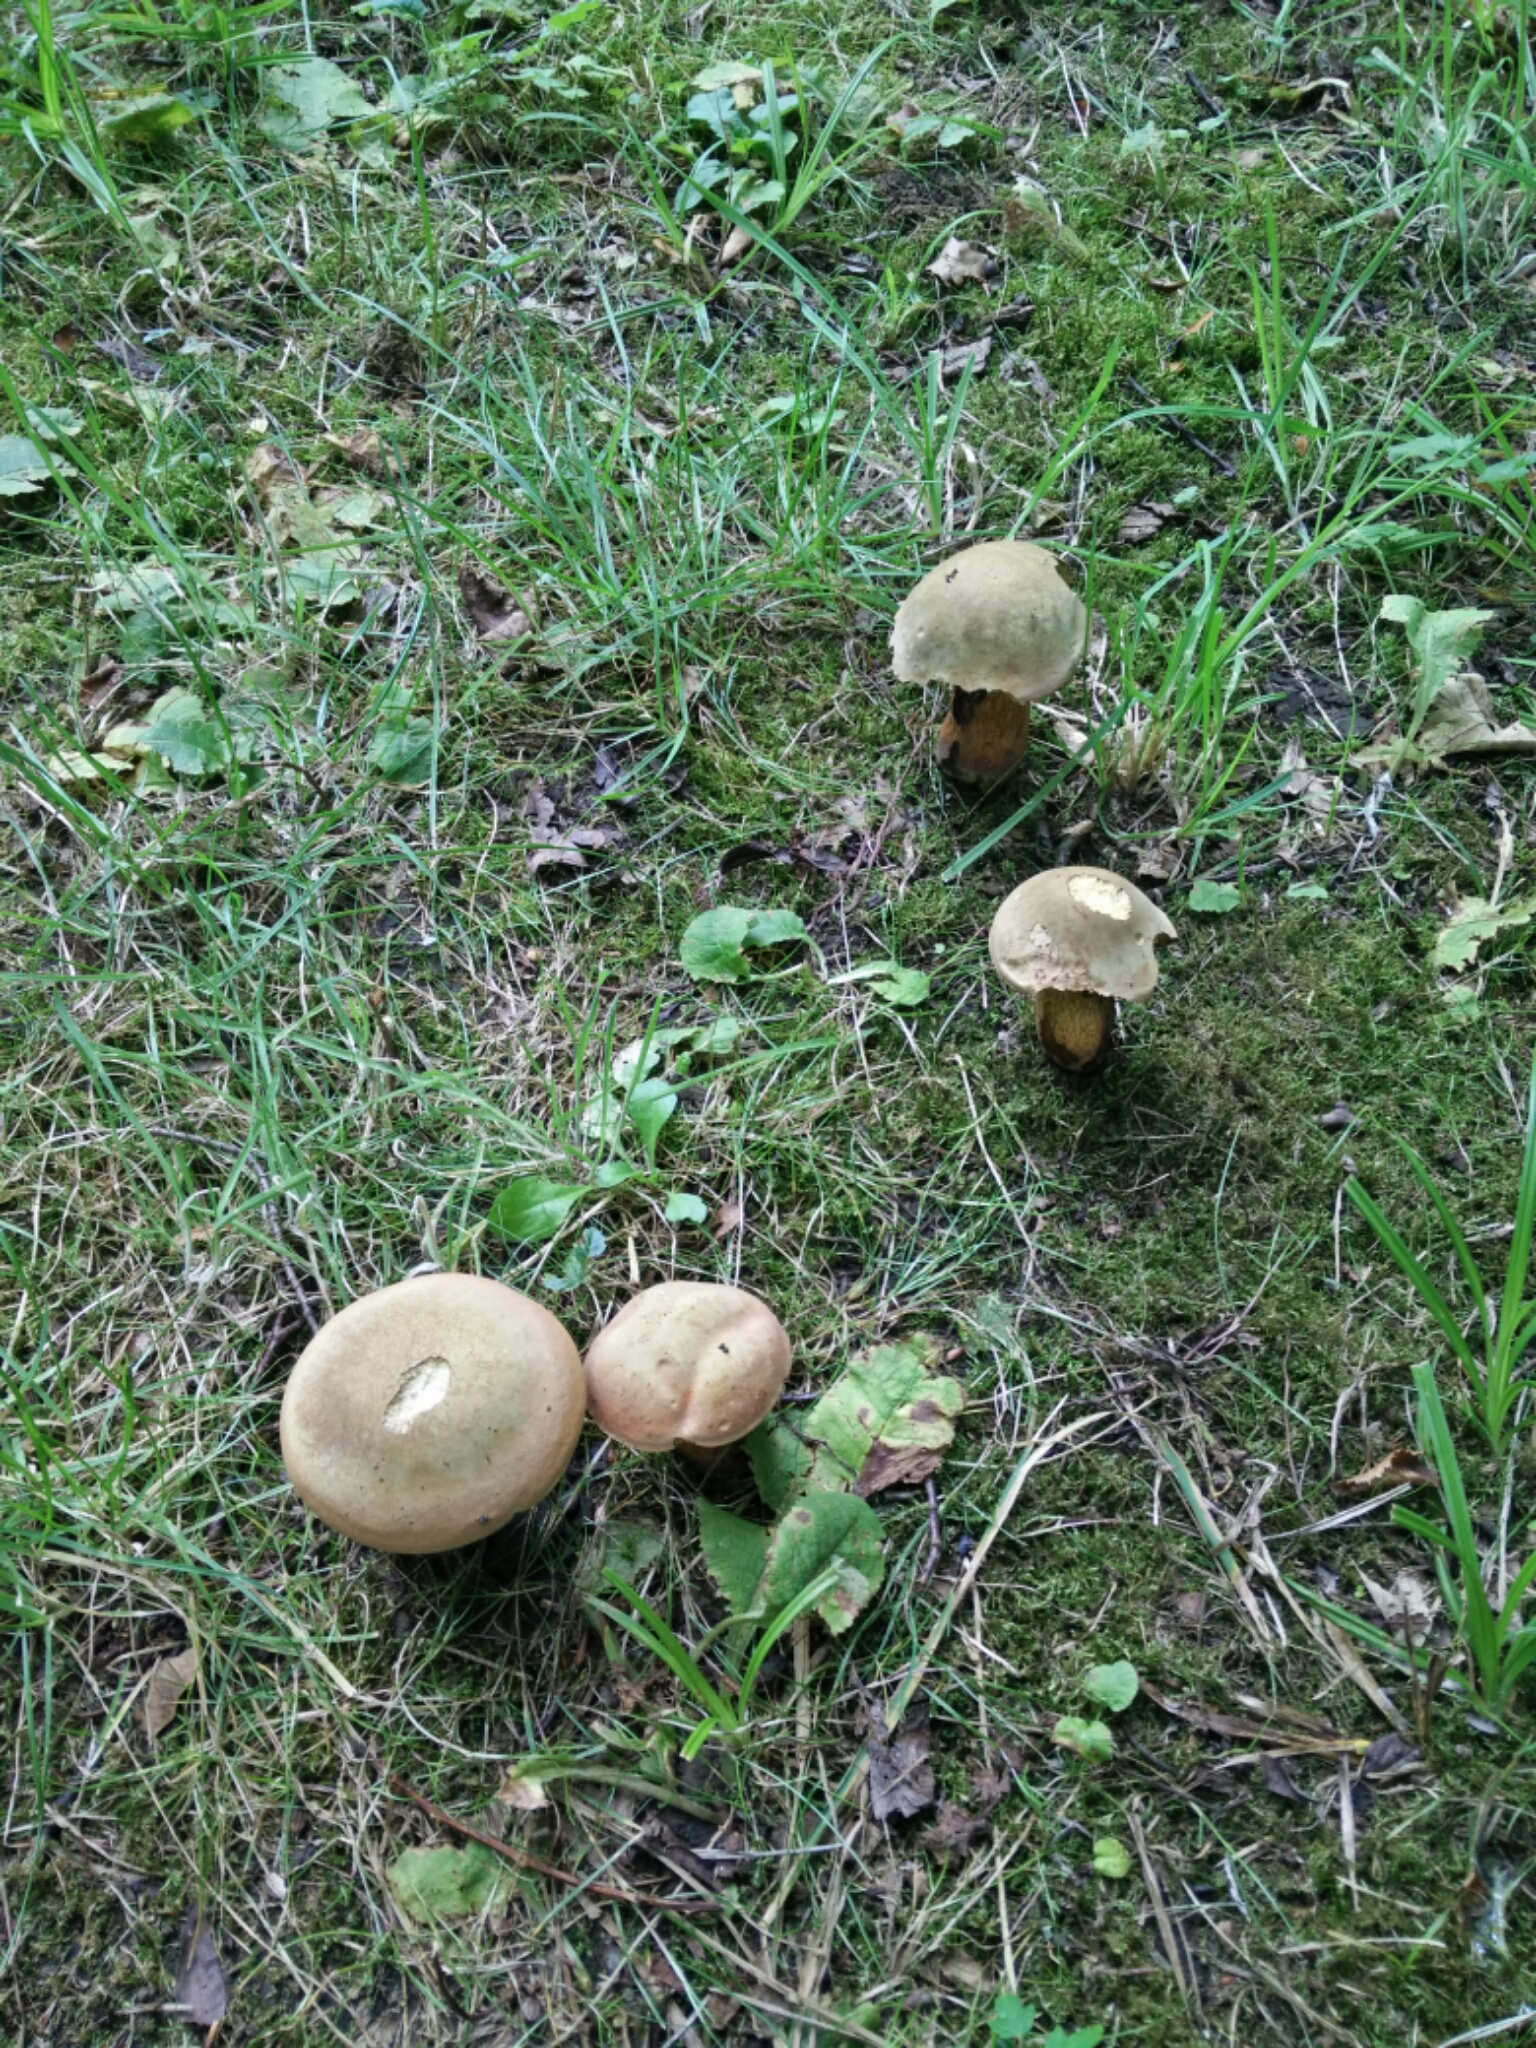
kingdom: Fungi
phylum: Basidiomycota
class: Agaricomycetes
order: Boletales
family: Boletaceae
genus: Suillellus
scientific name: Suillellus luridus
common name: Lurid bolete
